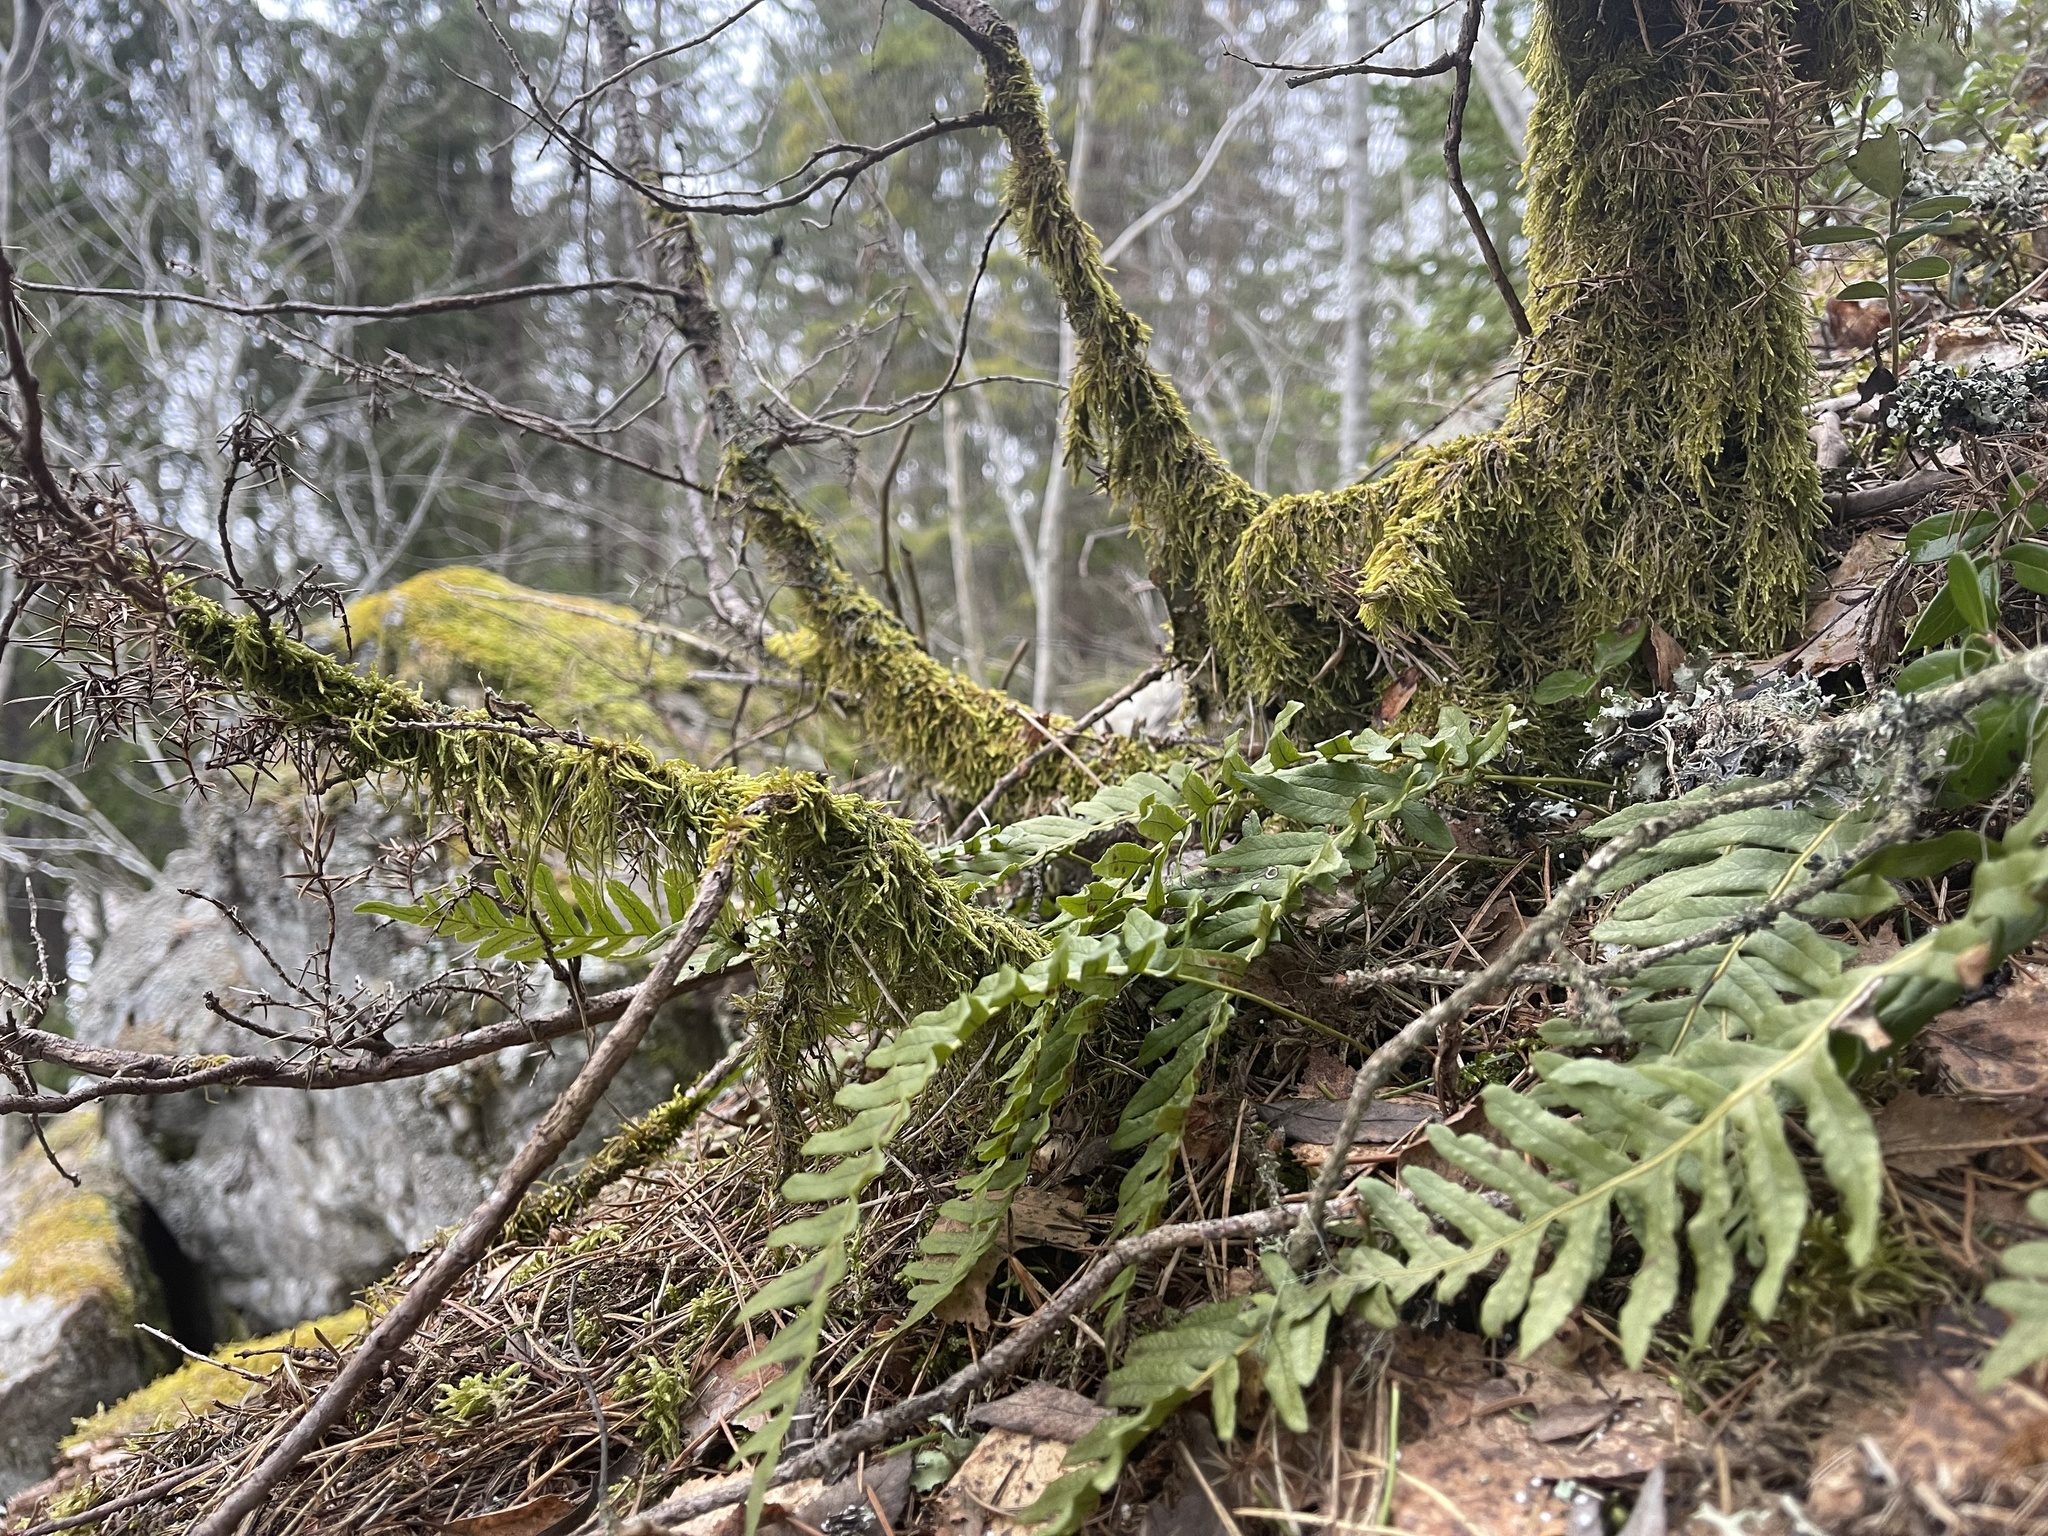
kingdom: Plantae
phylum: Tracheophyta
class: Polypodiopsida
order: Polypodiales
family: Polypodiaceae
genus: Polypodium
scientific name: Polypodium vulgare
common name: Common polypody
